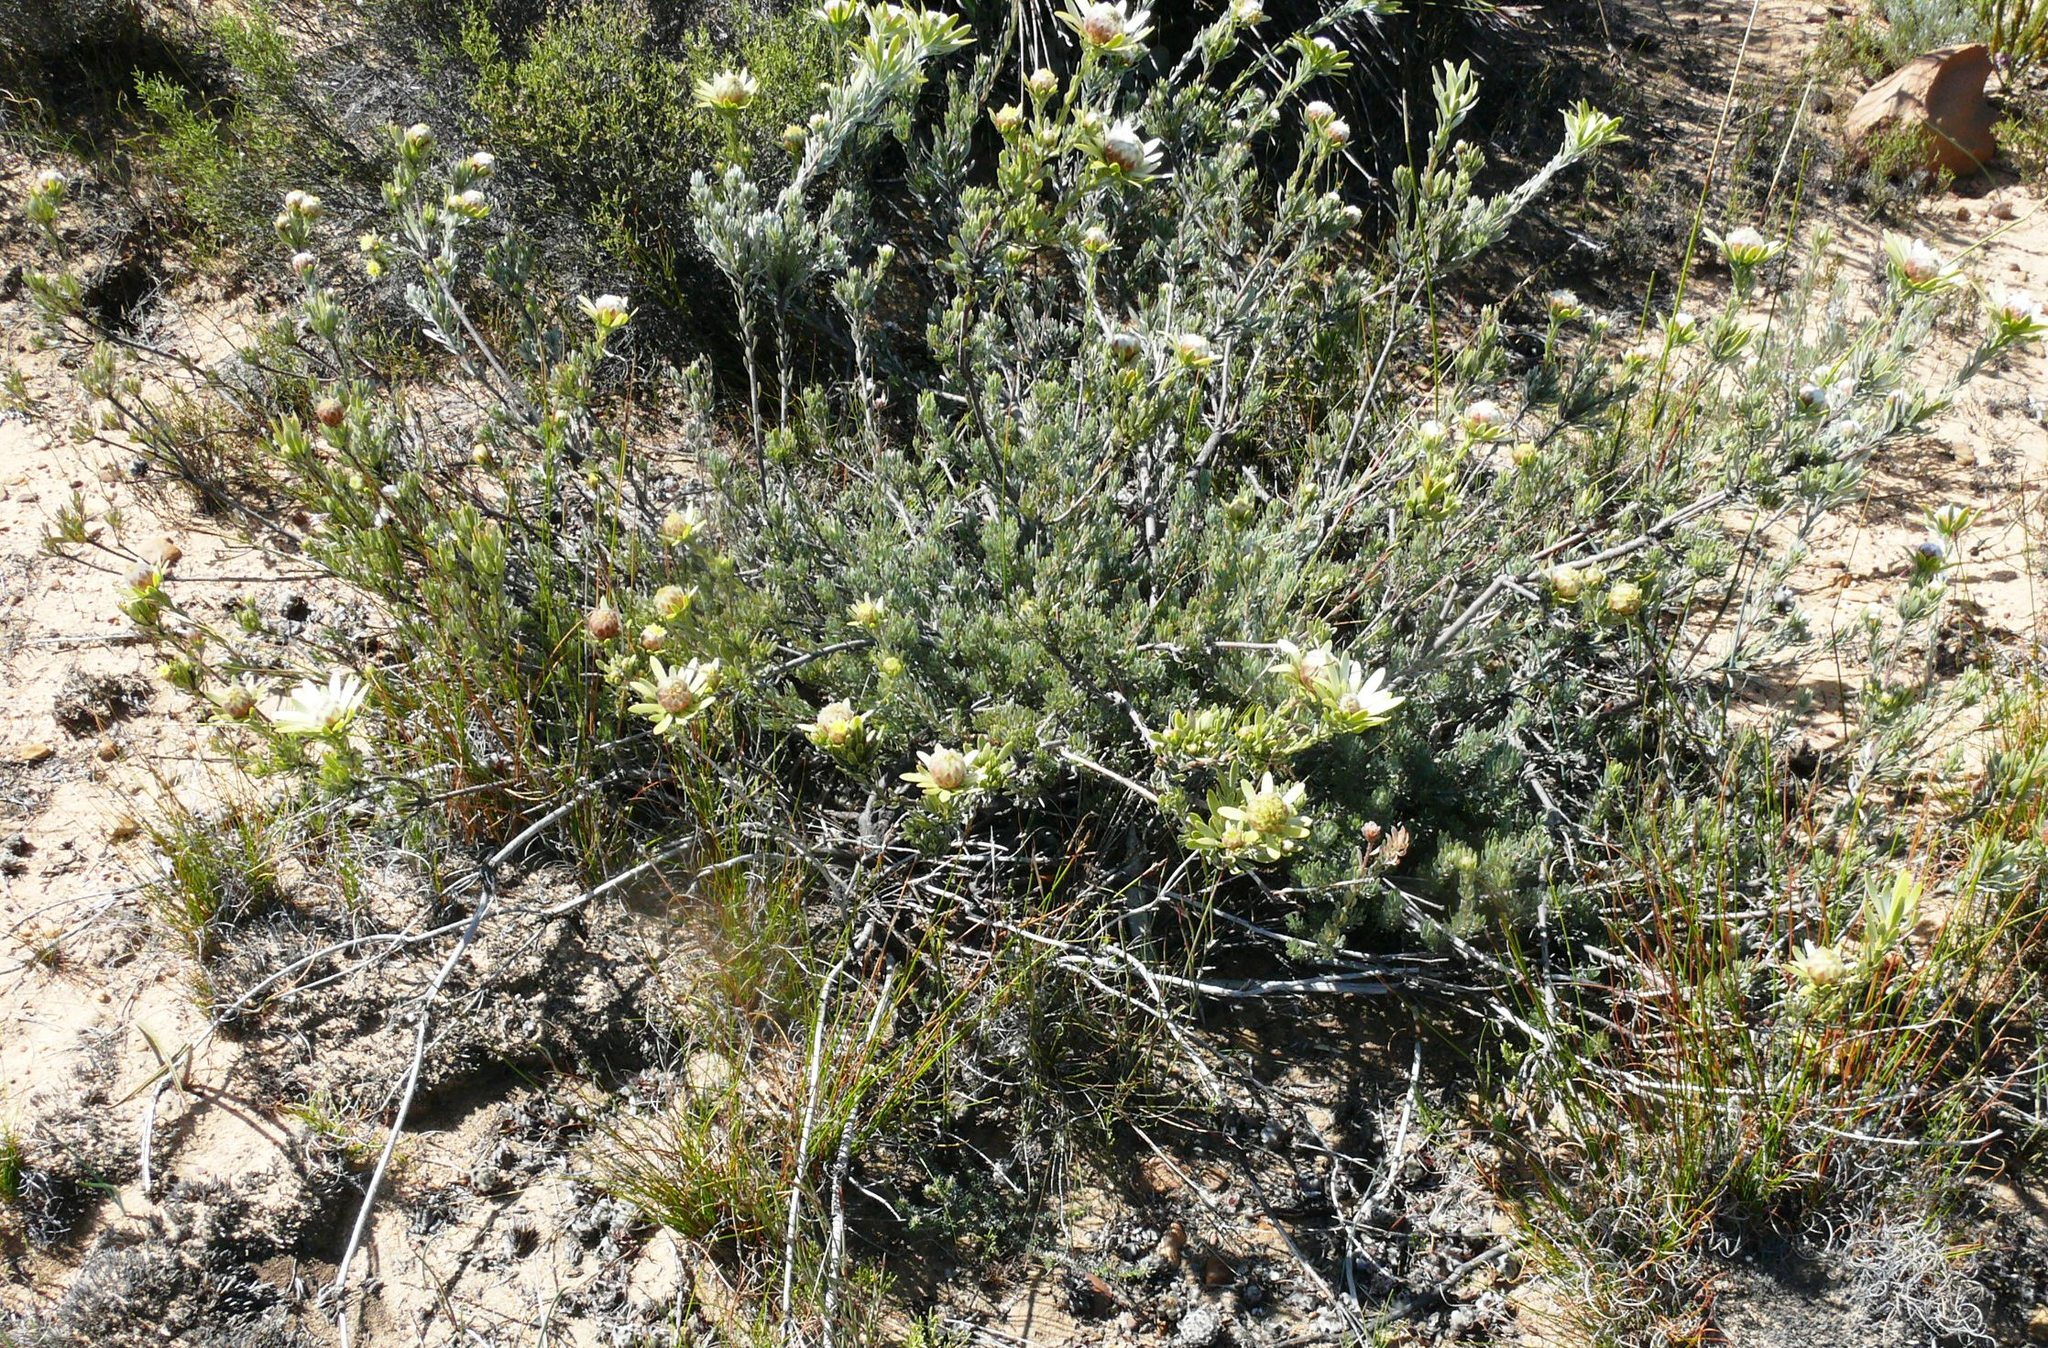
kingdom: Plantae
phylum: Tracheophyta
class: Magnoliopsida
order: Proteales
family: Proteaceae
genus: Leucadendron
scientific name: Leucadendron nitidum
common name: Bokkeveld conebush
